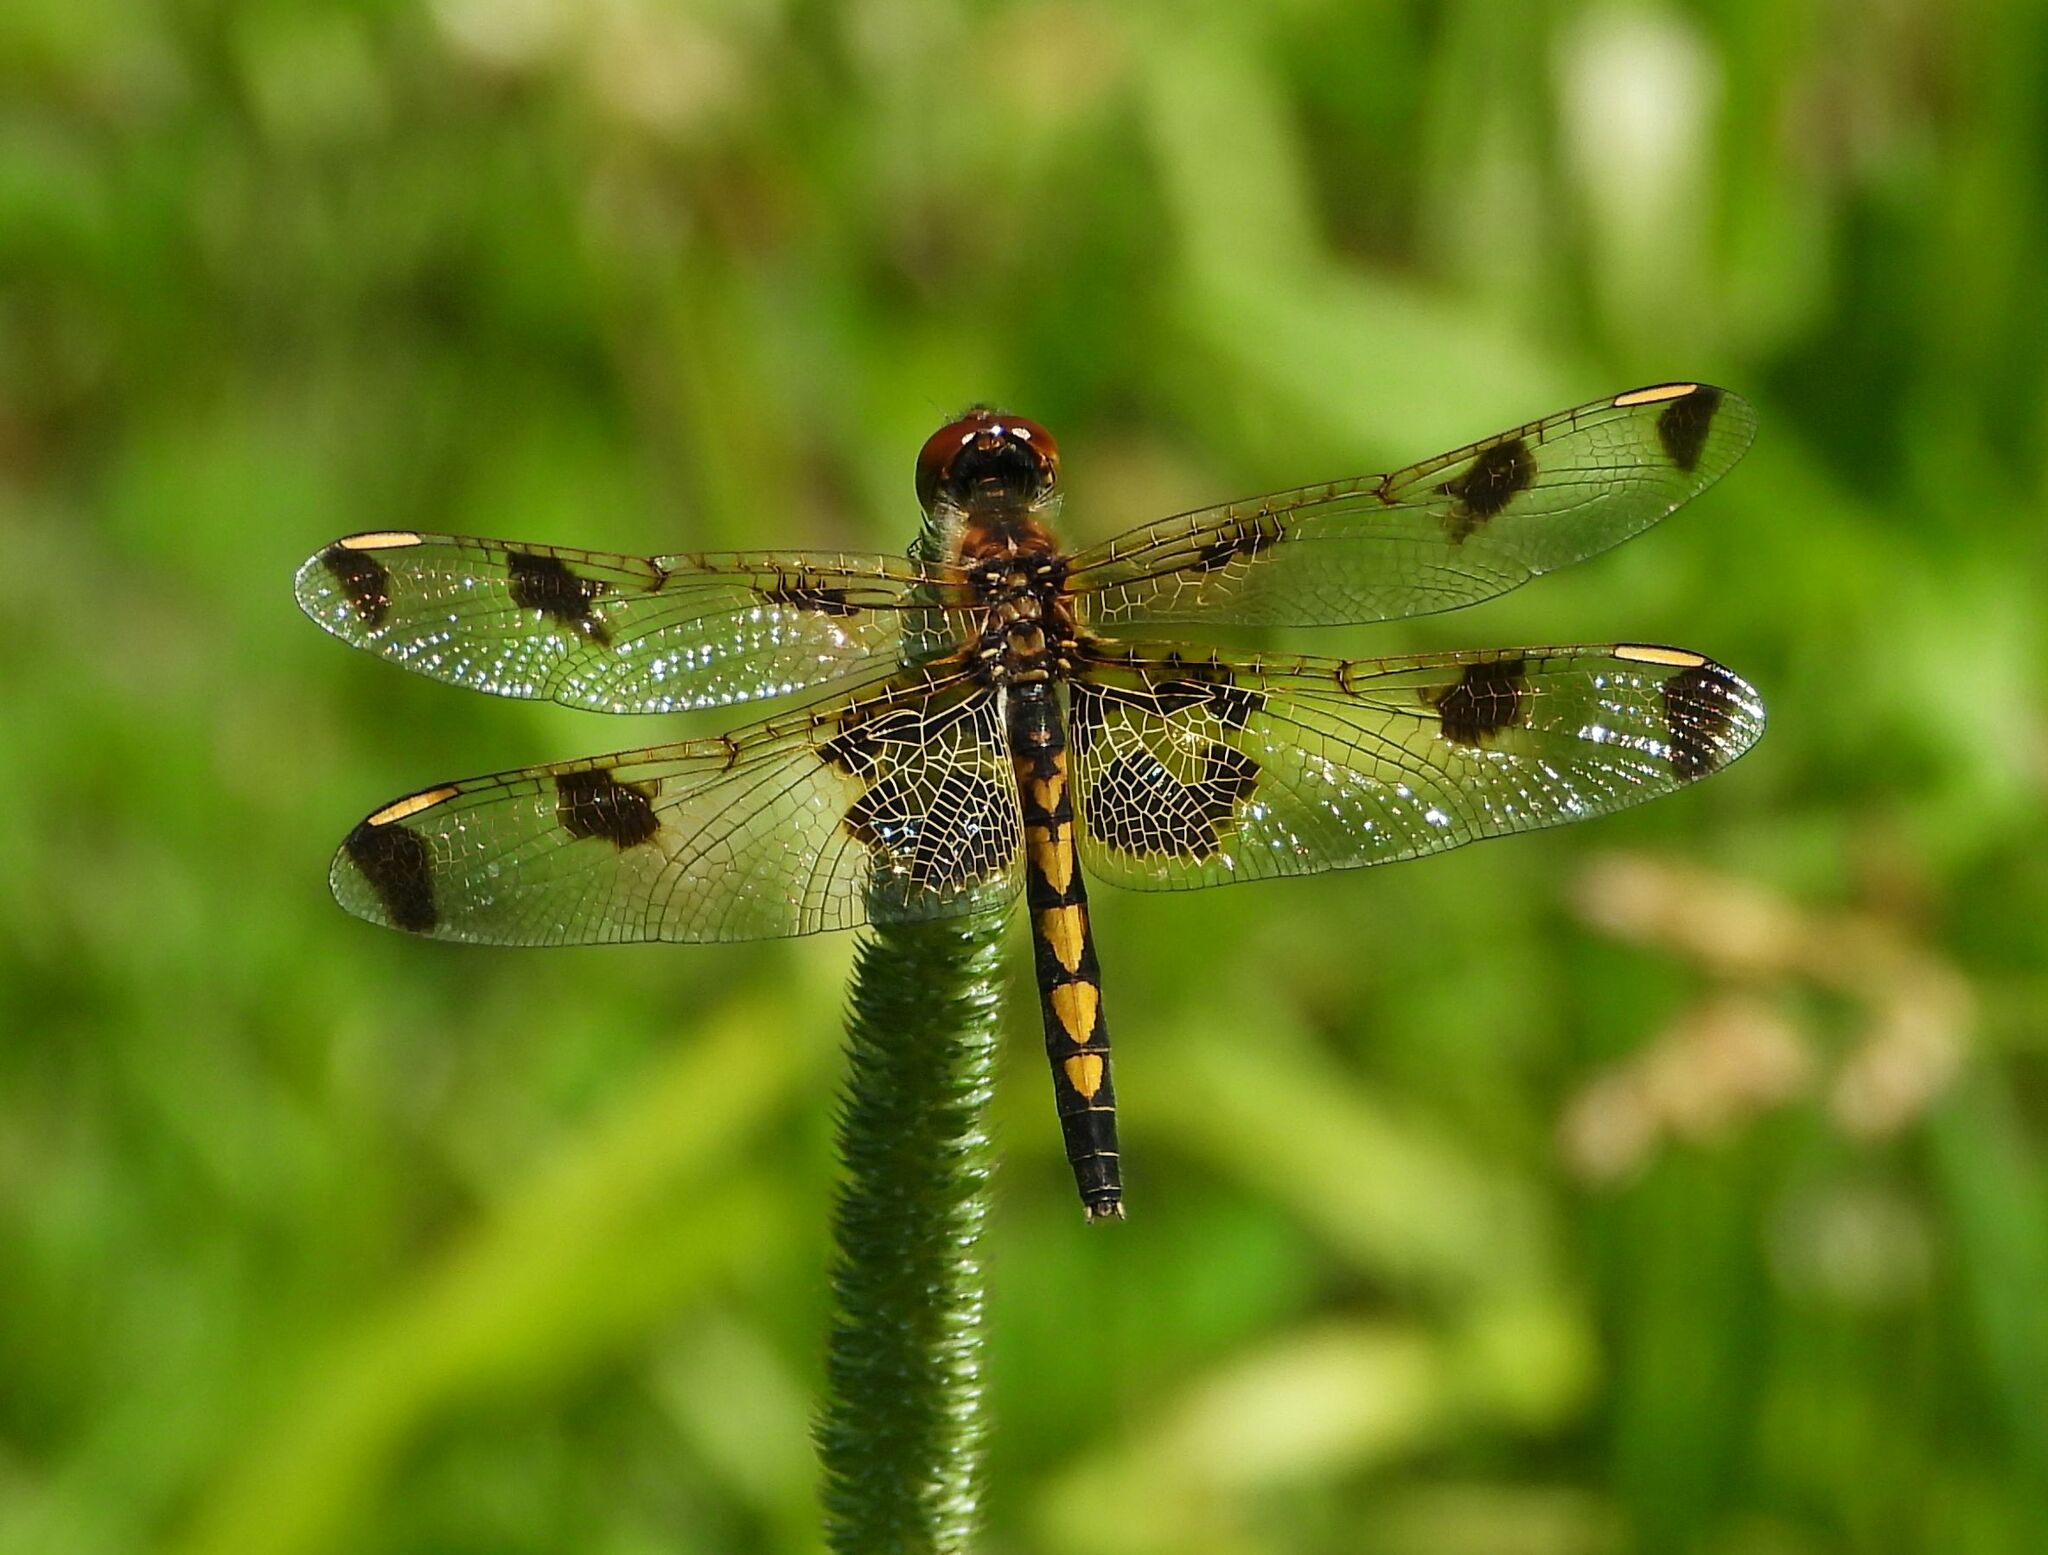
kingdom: Animalia
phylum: Arthropoda
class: Insecta
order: Odonata
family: Libellulidae
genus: Celithemis
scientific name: Celithemis elisa
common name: Calico pennant
